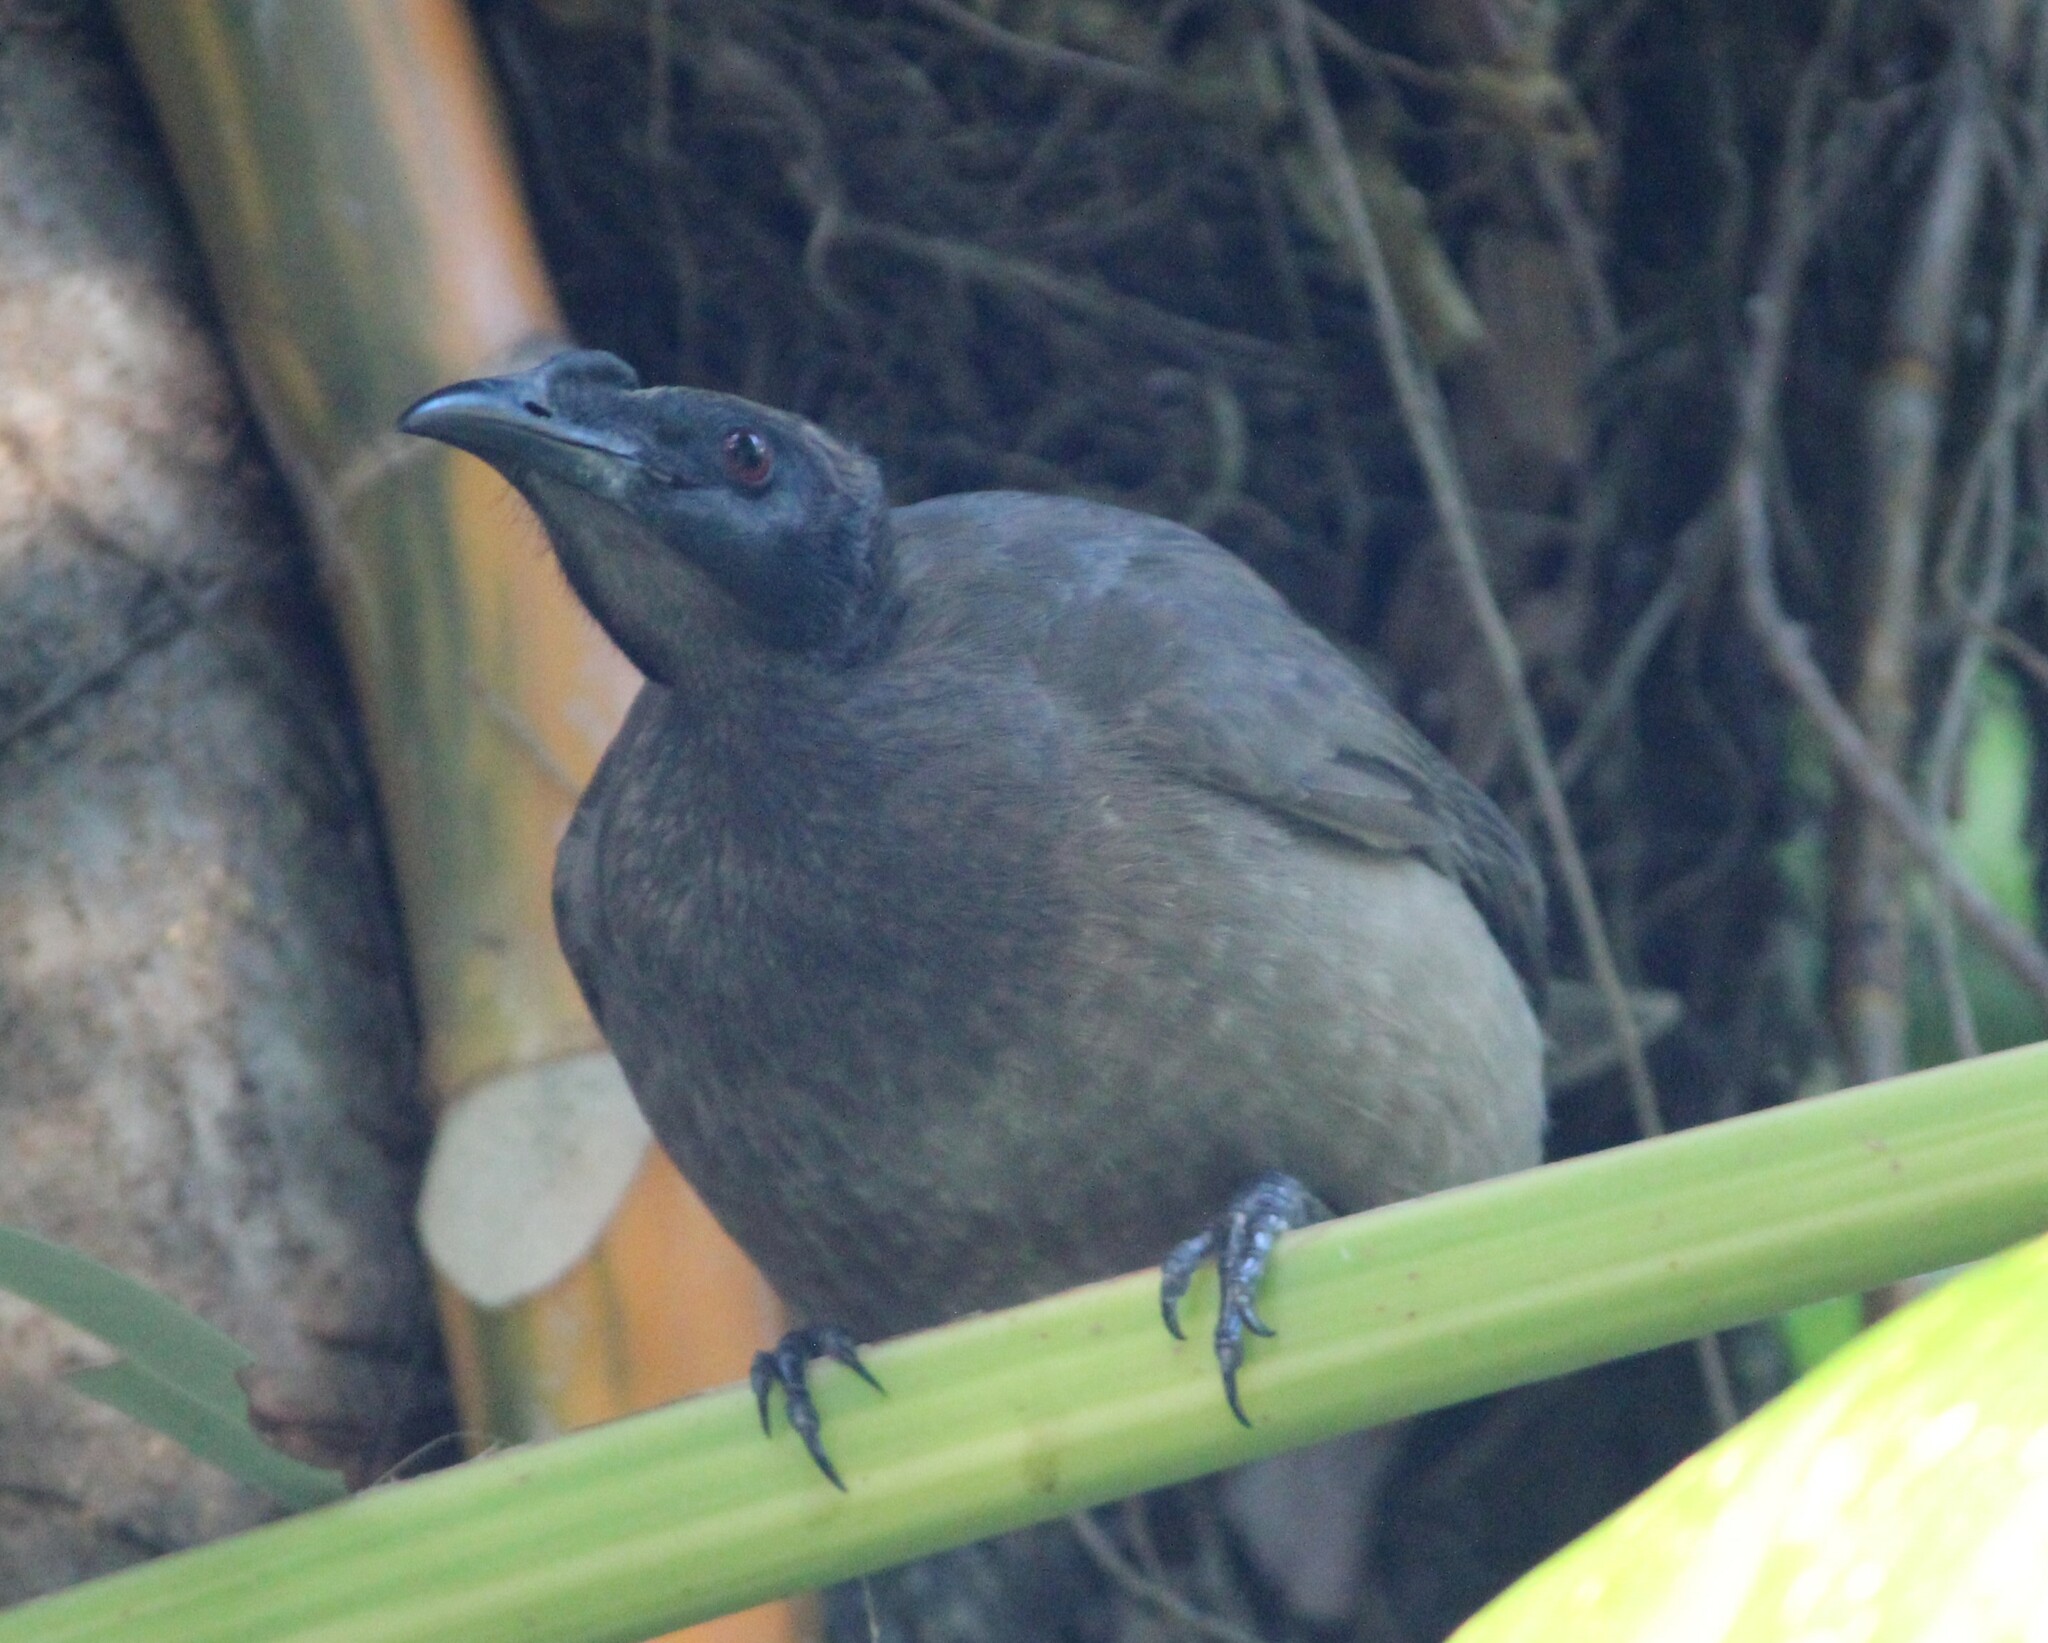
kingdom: Animalia
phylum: Chordata
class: Aves
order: Passeriformes
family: Meliphagidae
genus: Philemon
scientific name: Philemon buceroides
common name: Helmeted friarbird
